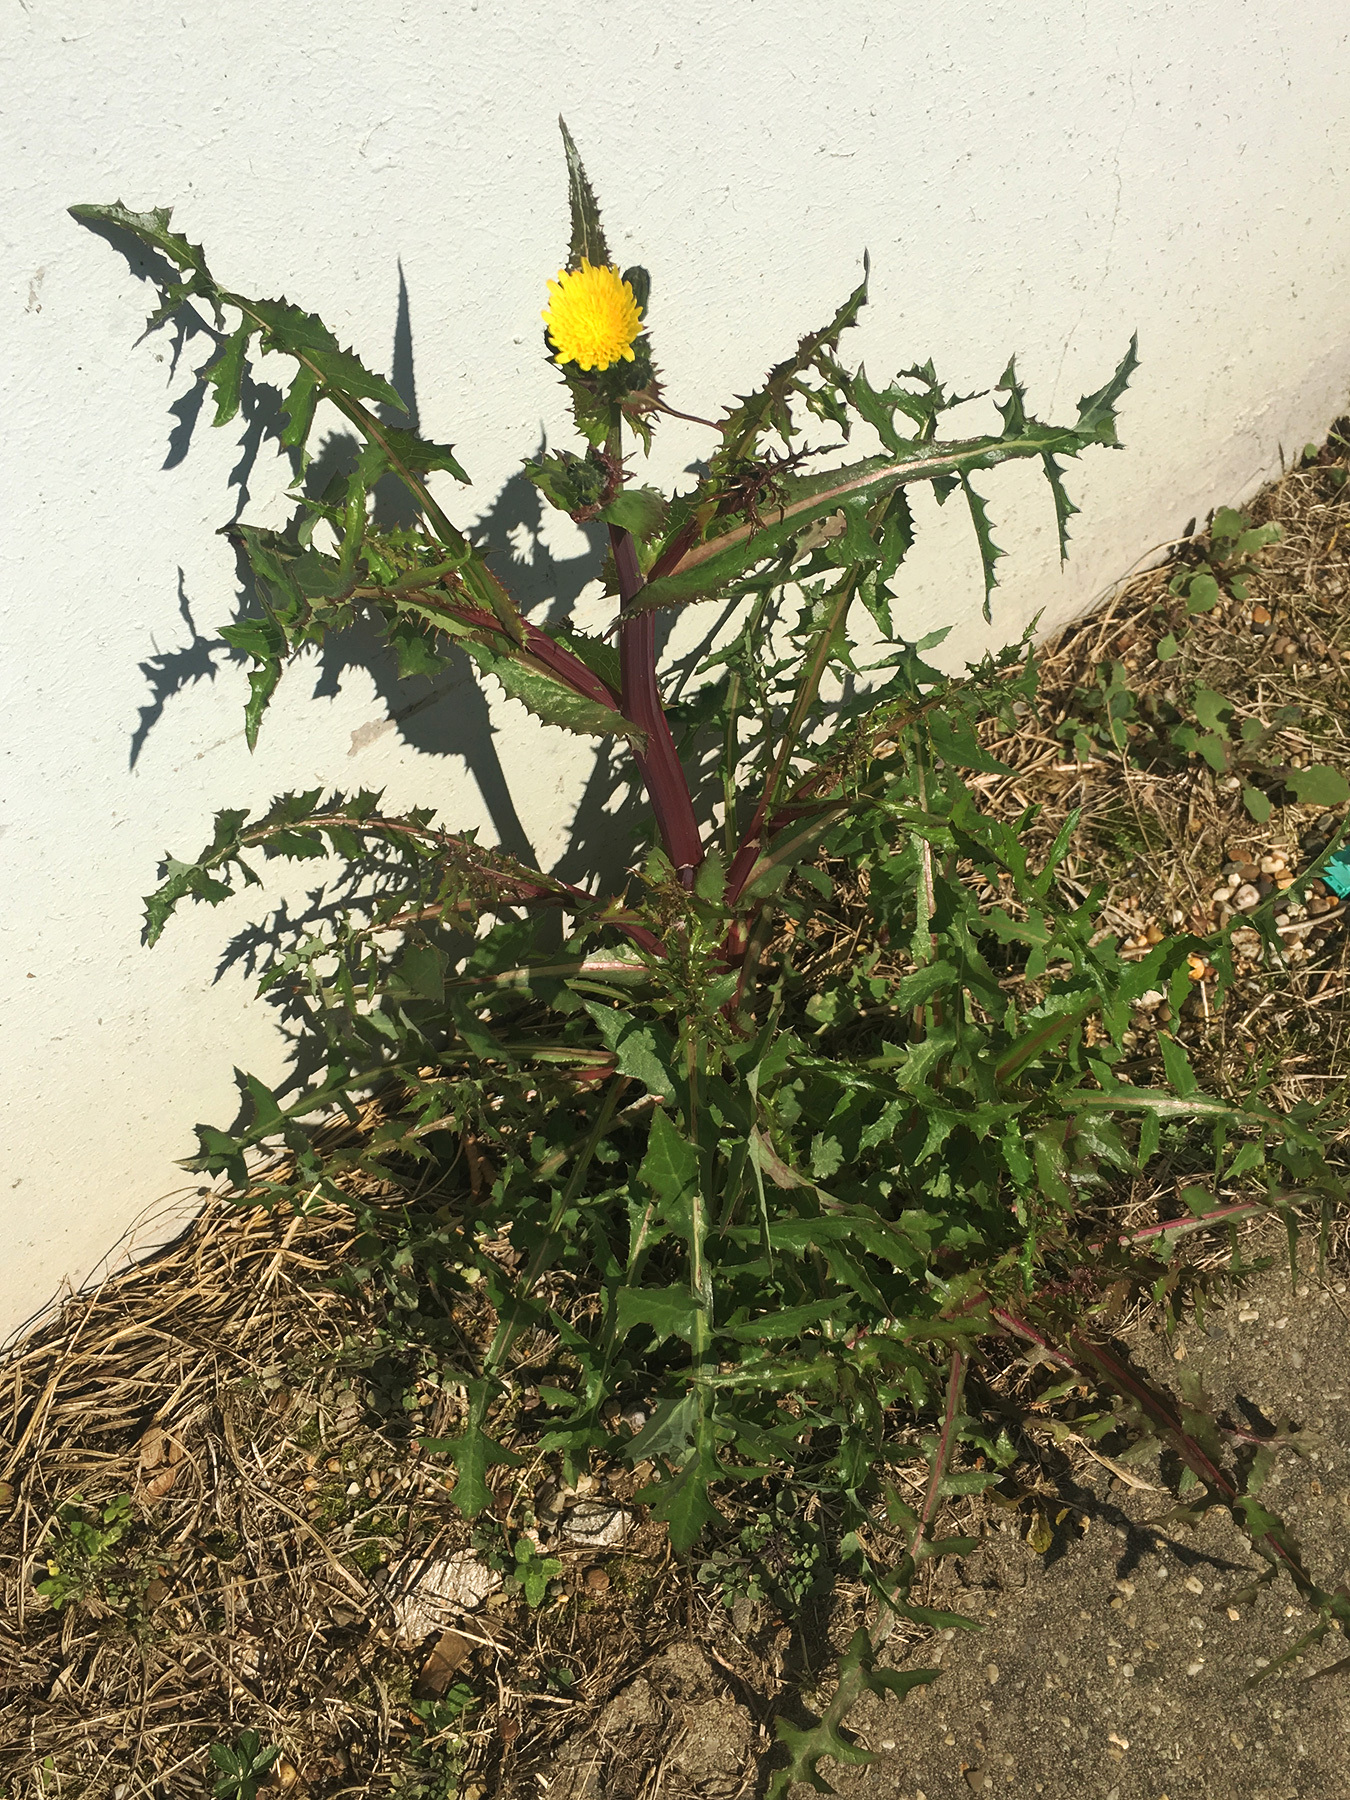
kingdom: Plantae
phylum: Tracheophyta
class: Magnoliopsida
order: Asterales
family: Asteraceae
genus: Sonchus
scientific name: Sonchus asper
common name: Prickly sow-thistle
